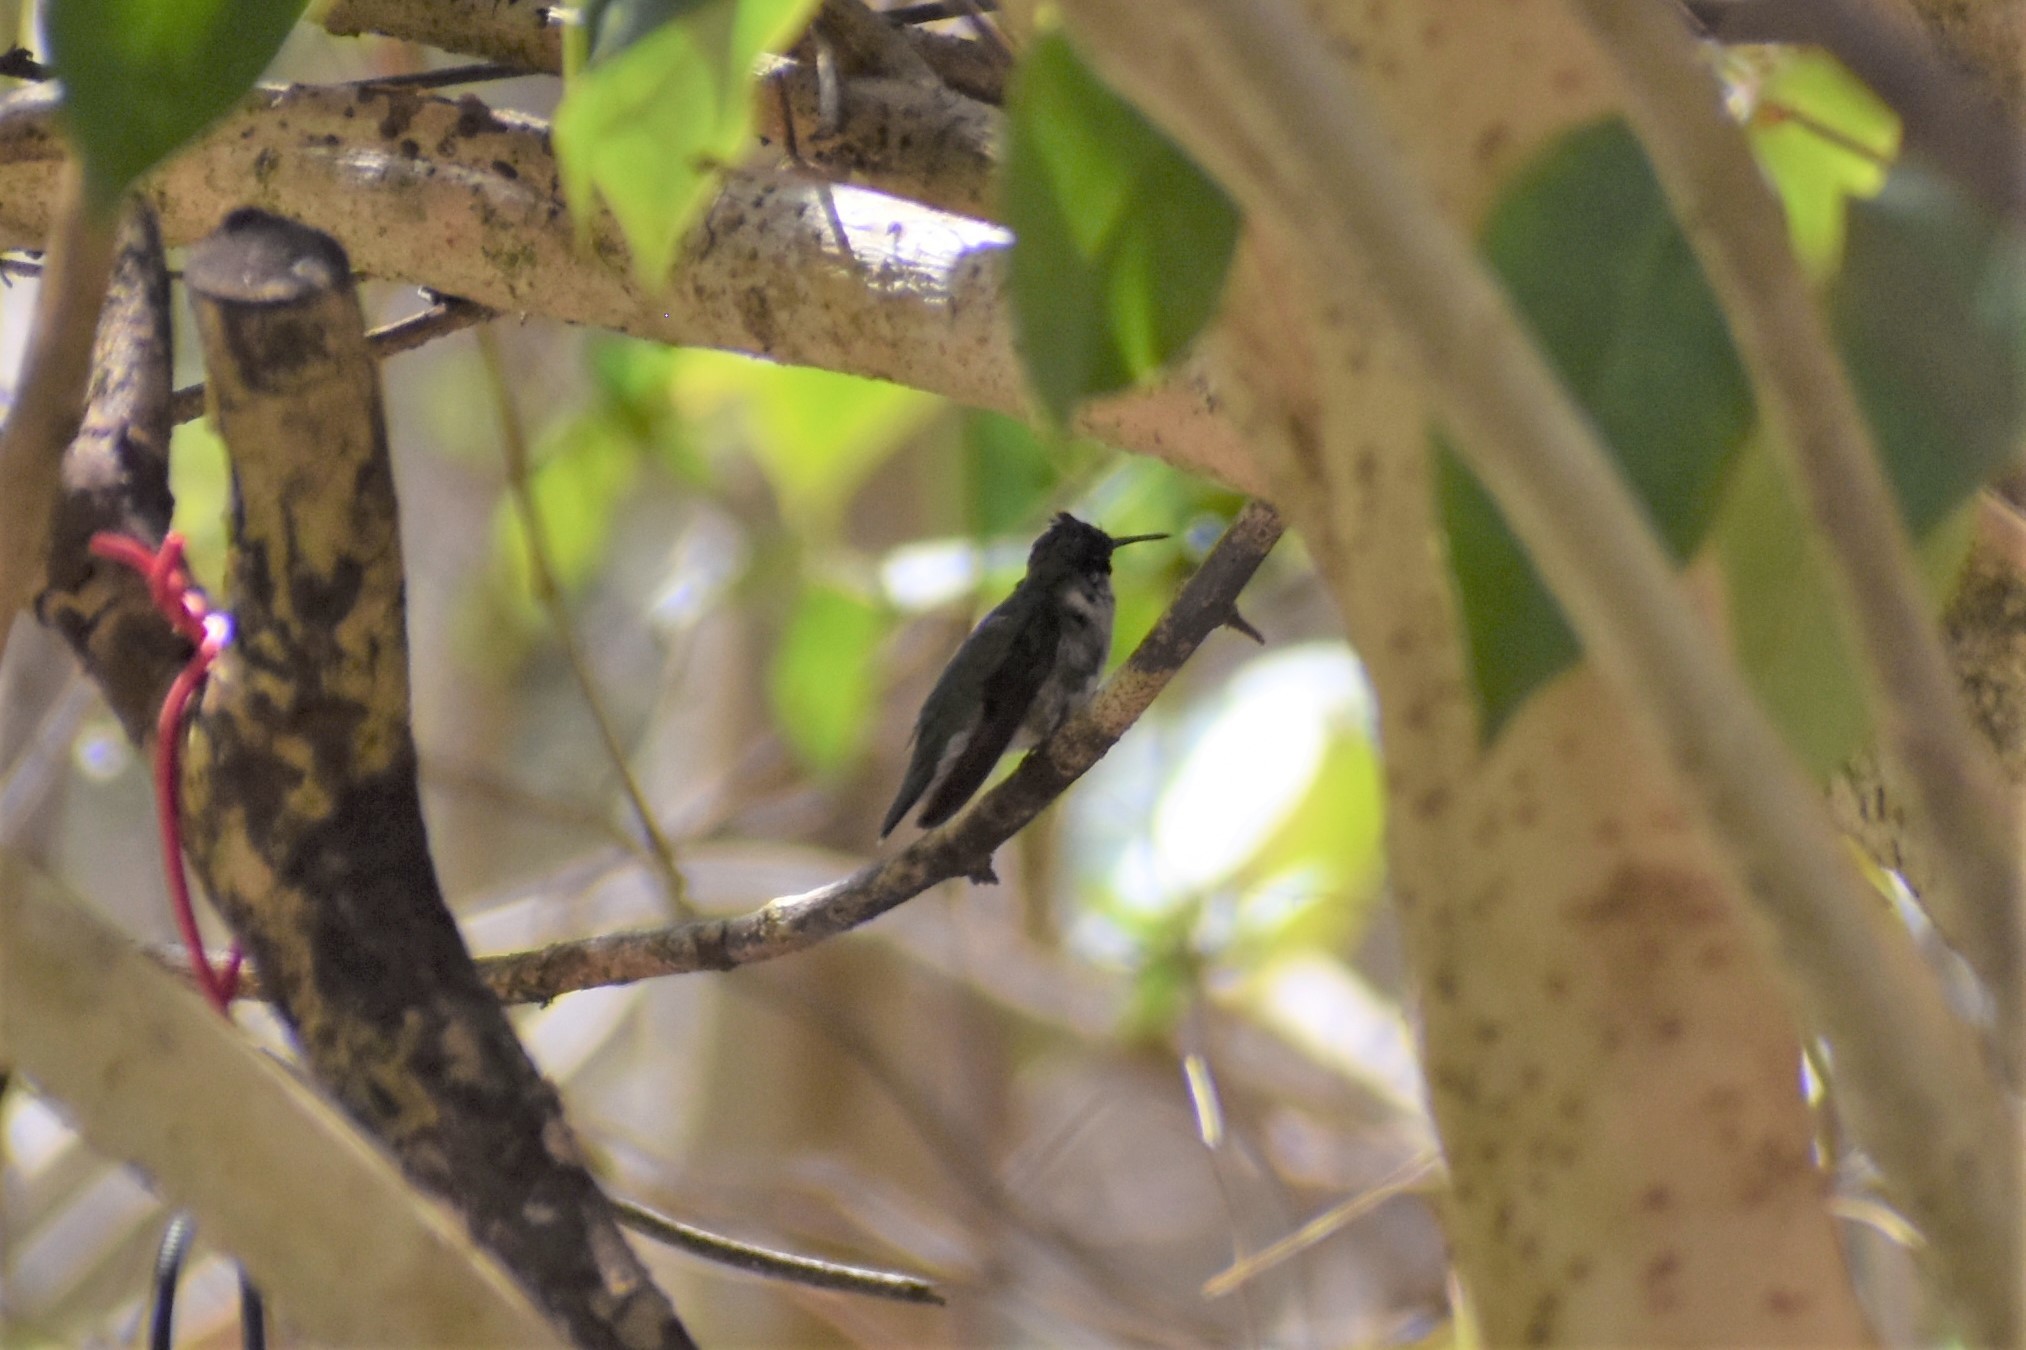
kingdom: Animalia
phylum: Chordata
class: Aves
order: Apodiformes
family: Trochilidae
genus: Archilochus
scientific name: Archilochus alexandri
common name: Black-chinned hummingbird
